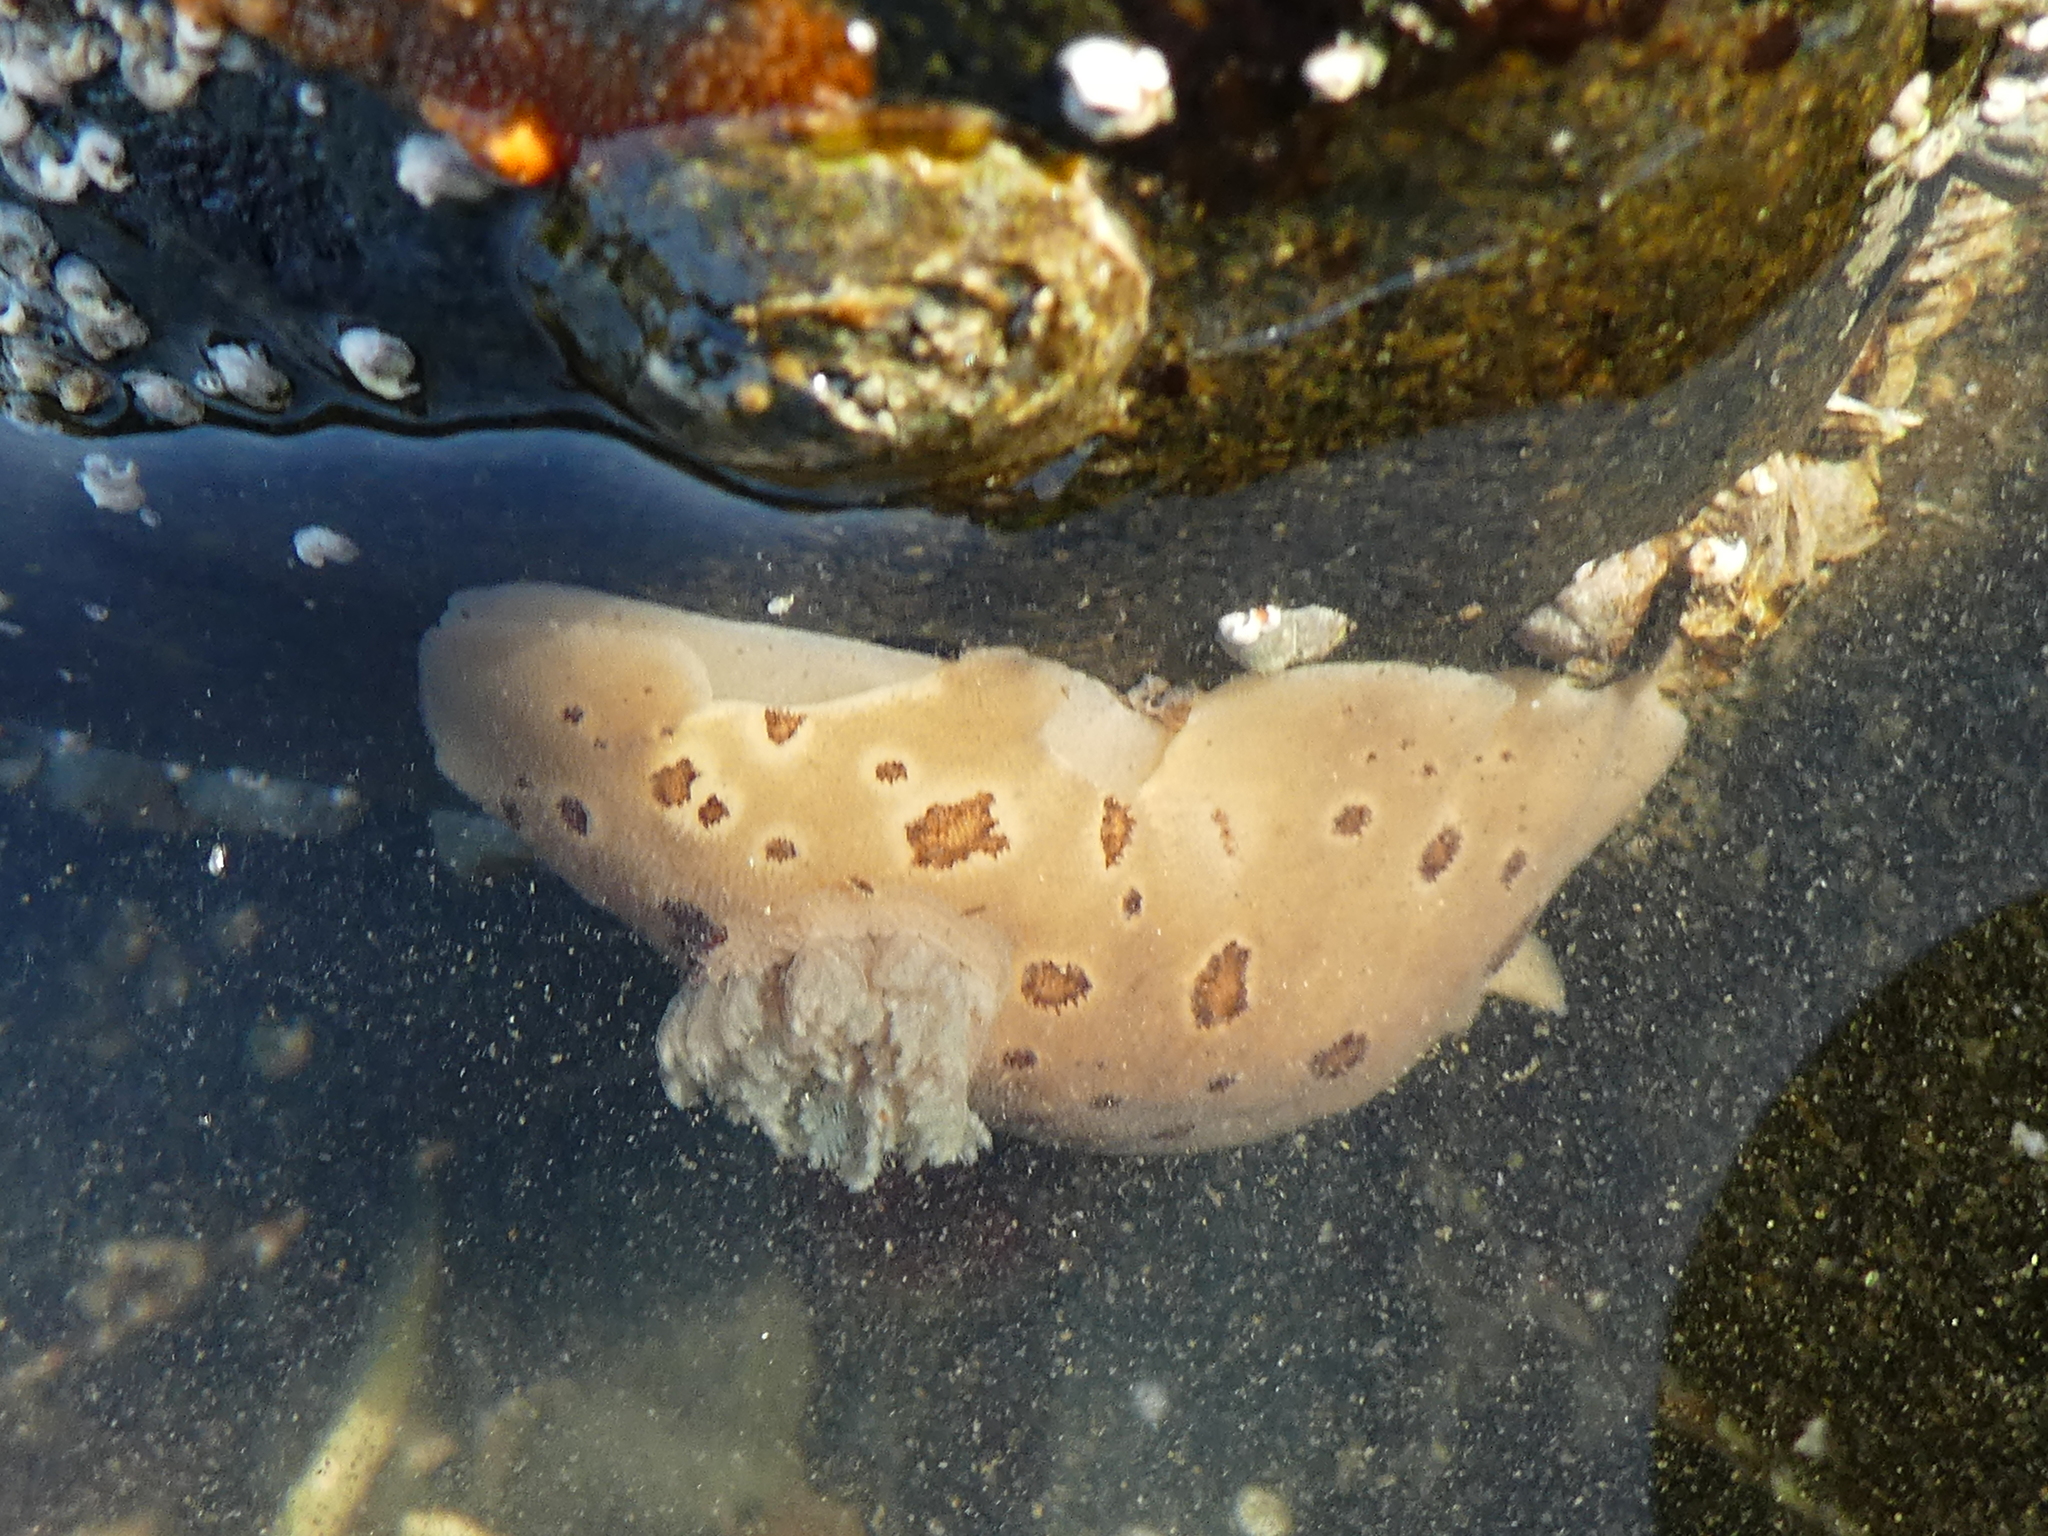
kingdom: Animalia
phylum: Mollusca
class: Gastropoda
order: Nudibranchia
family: Discodorididae
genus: Diaulula
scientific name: Diaulula odonoghuei
